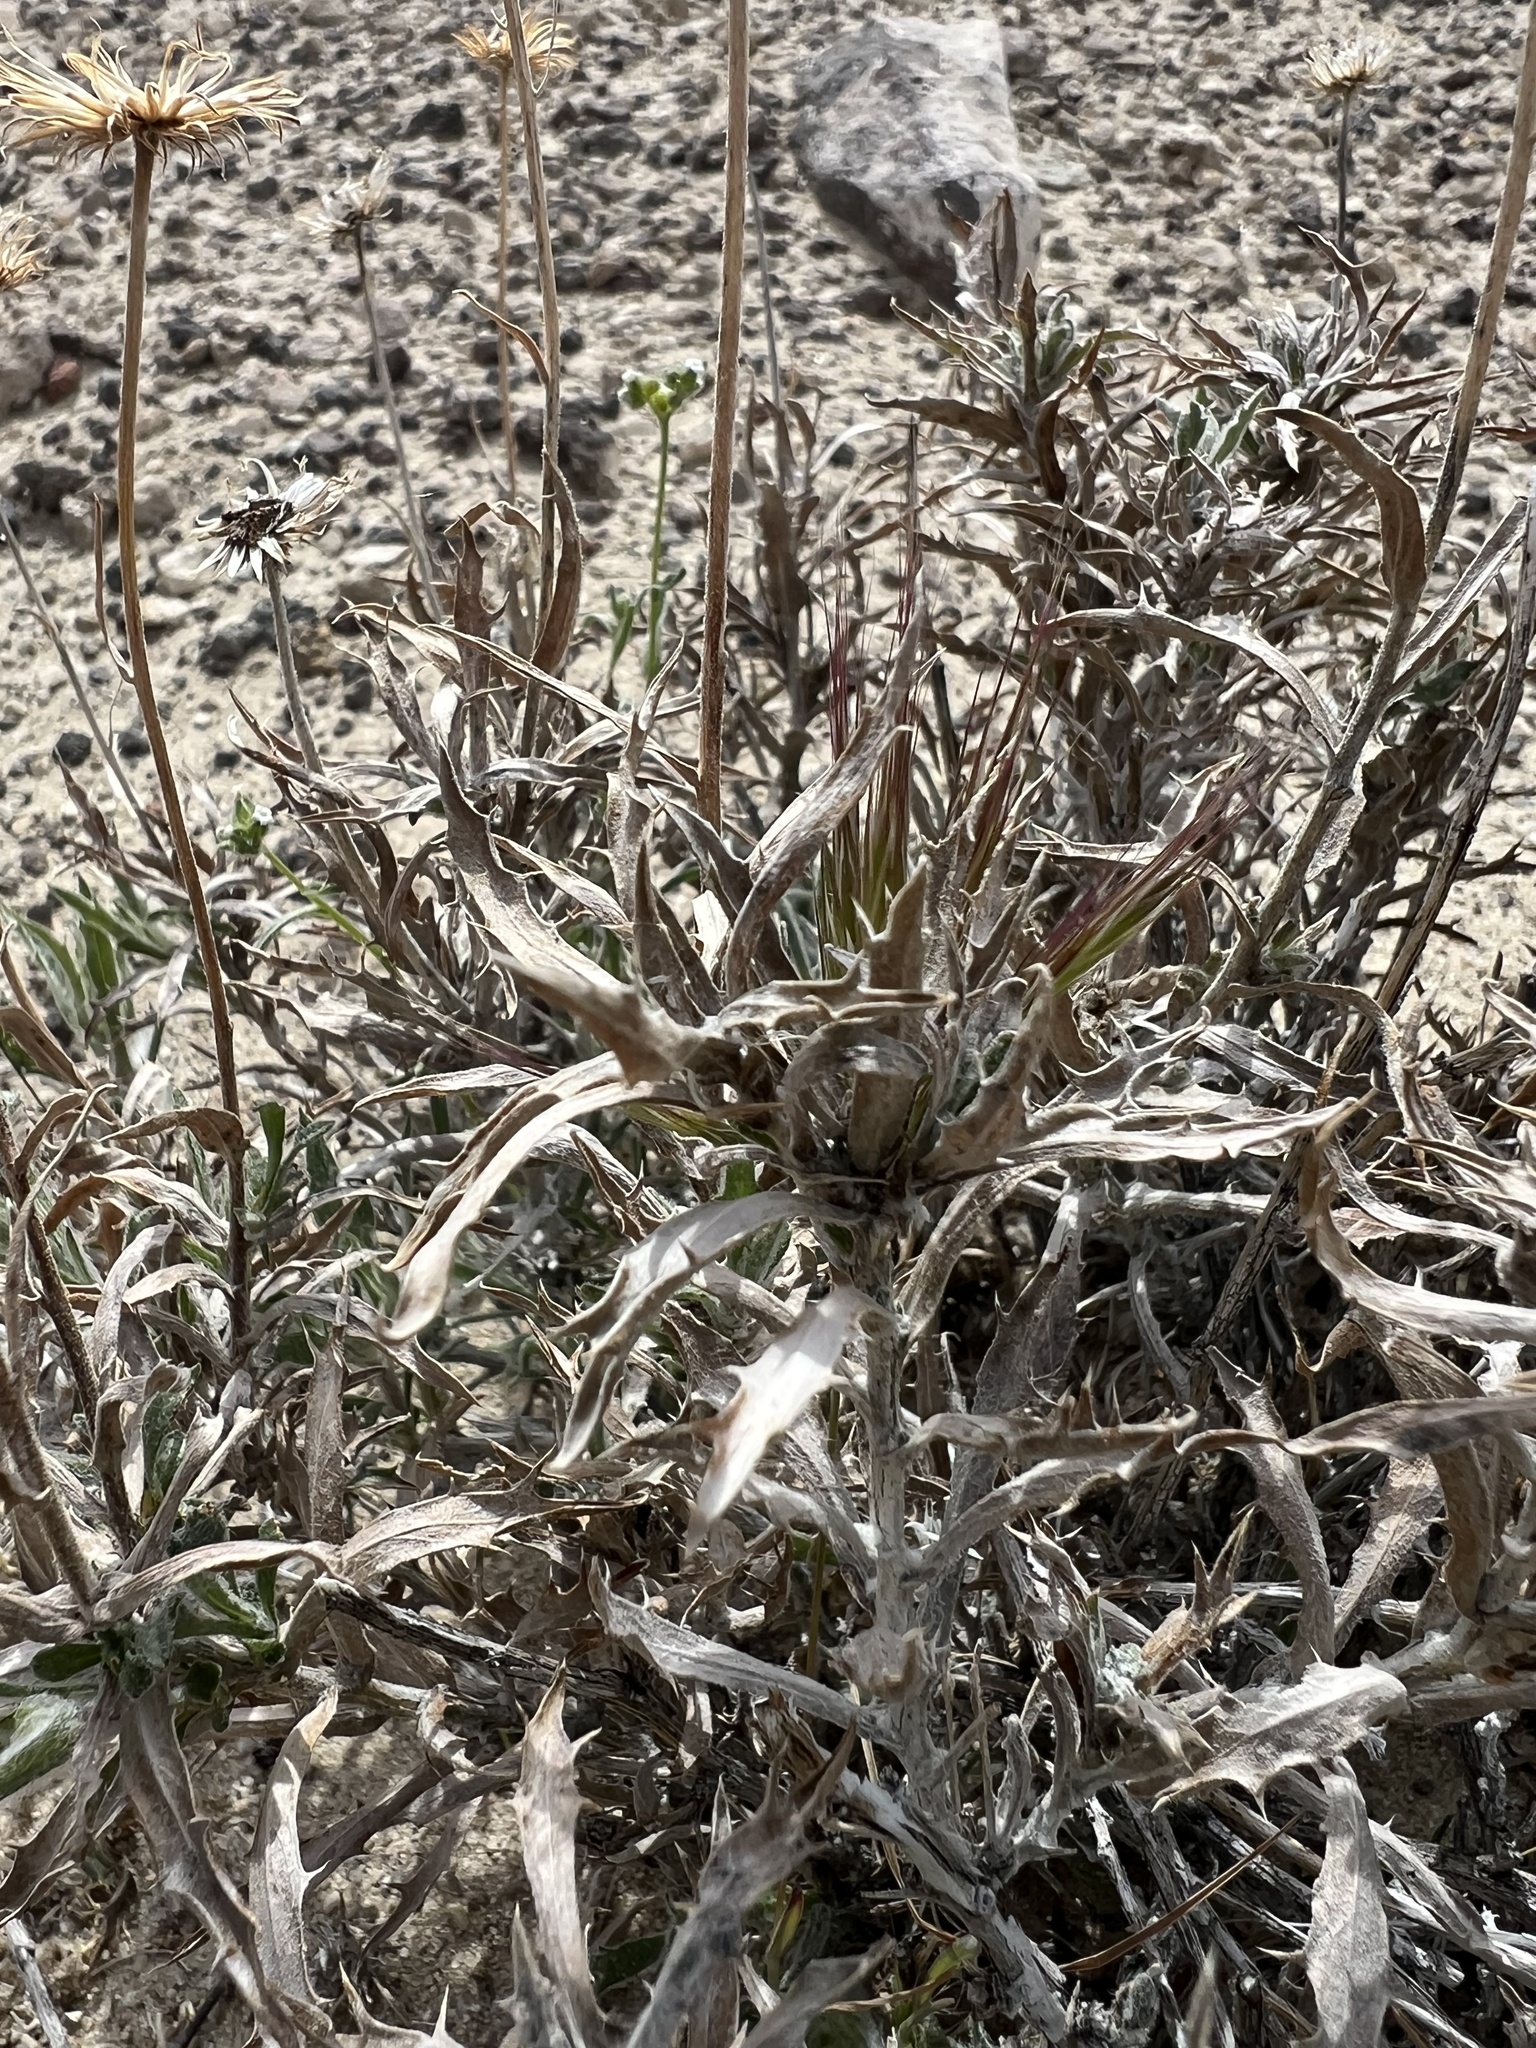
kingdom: Plantae
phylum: Tracheophyta
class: Magnoliopsida
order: Asterales
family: Asteraceae
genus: Xylorhiza
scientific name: Xylorhiza tortifolia
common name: Hurt-leaf woody-aster
